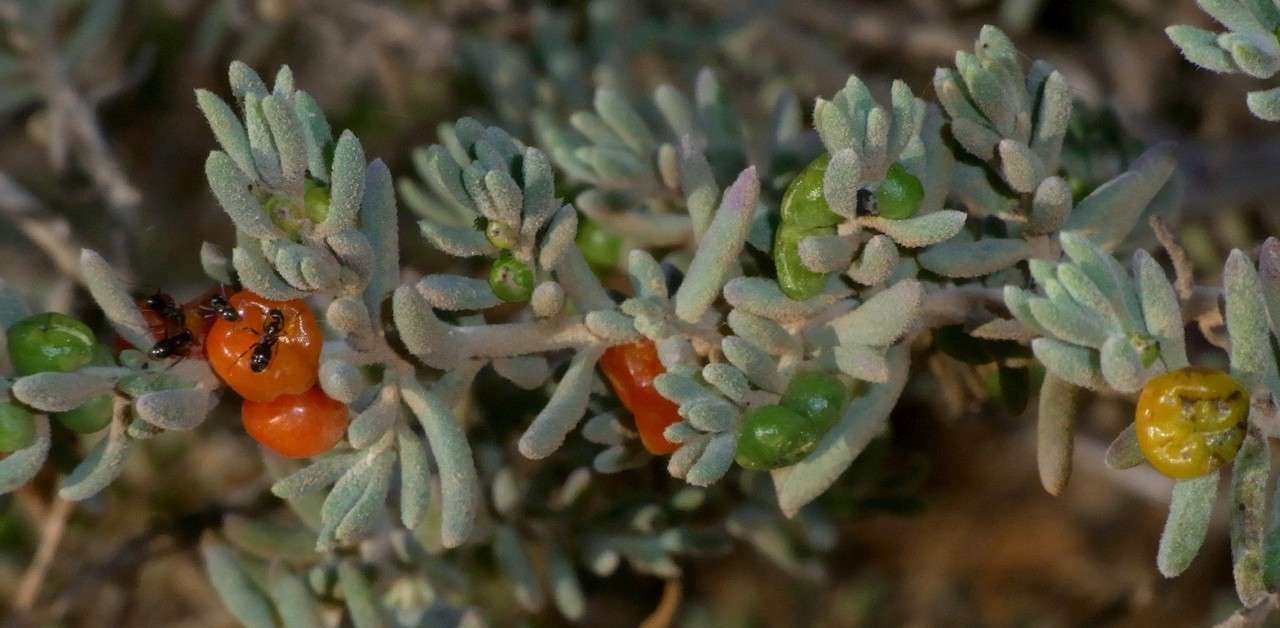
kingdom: Plantae
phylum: Tracheophyta
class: Magnoliopsida
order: Caryophyllales
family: Amaranthaceae
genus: Enchylaena
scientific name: Enchylaena tomentosa
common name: Ruby saltbush
